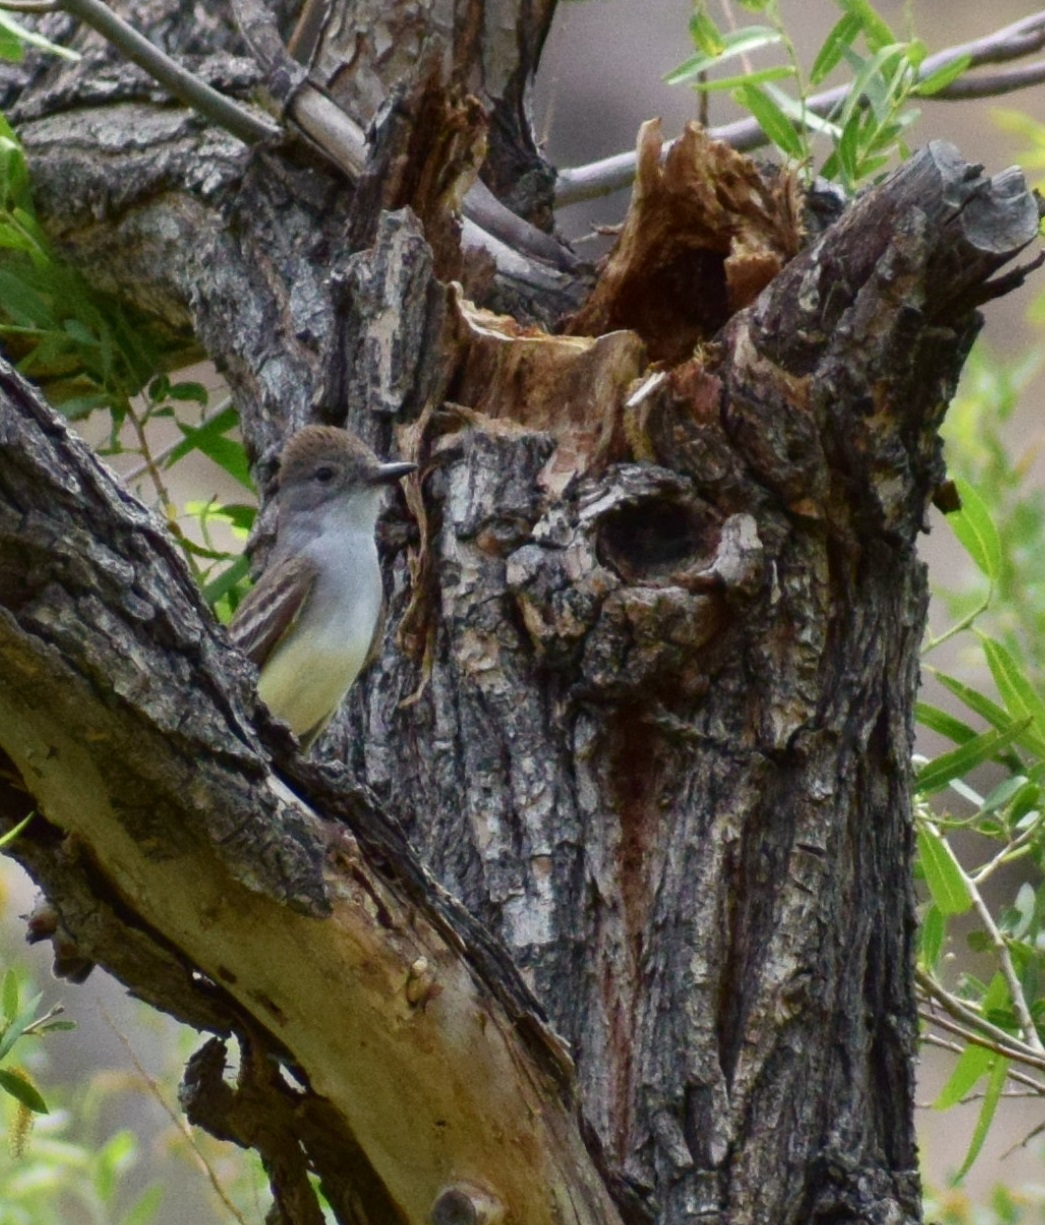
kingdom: Animalia
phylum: Chordata
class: Aves
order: Passeriformes
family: Tyrannidae
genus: Myiarchus
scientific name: Myiarchus cinerascens
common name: Ash-throated flycatcher
